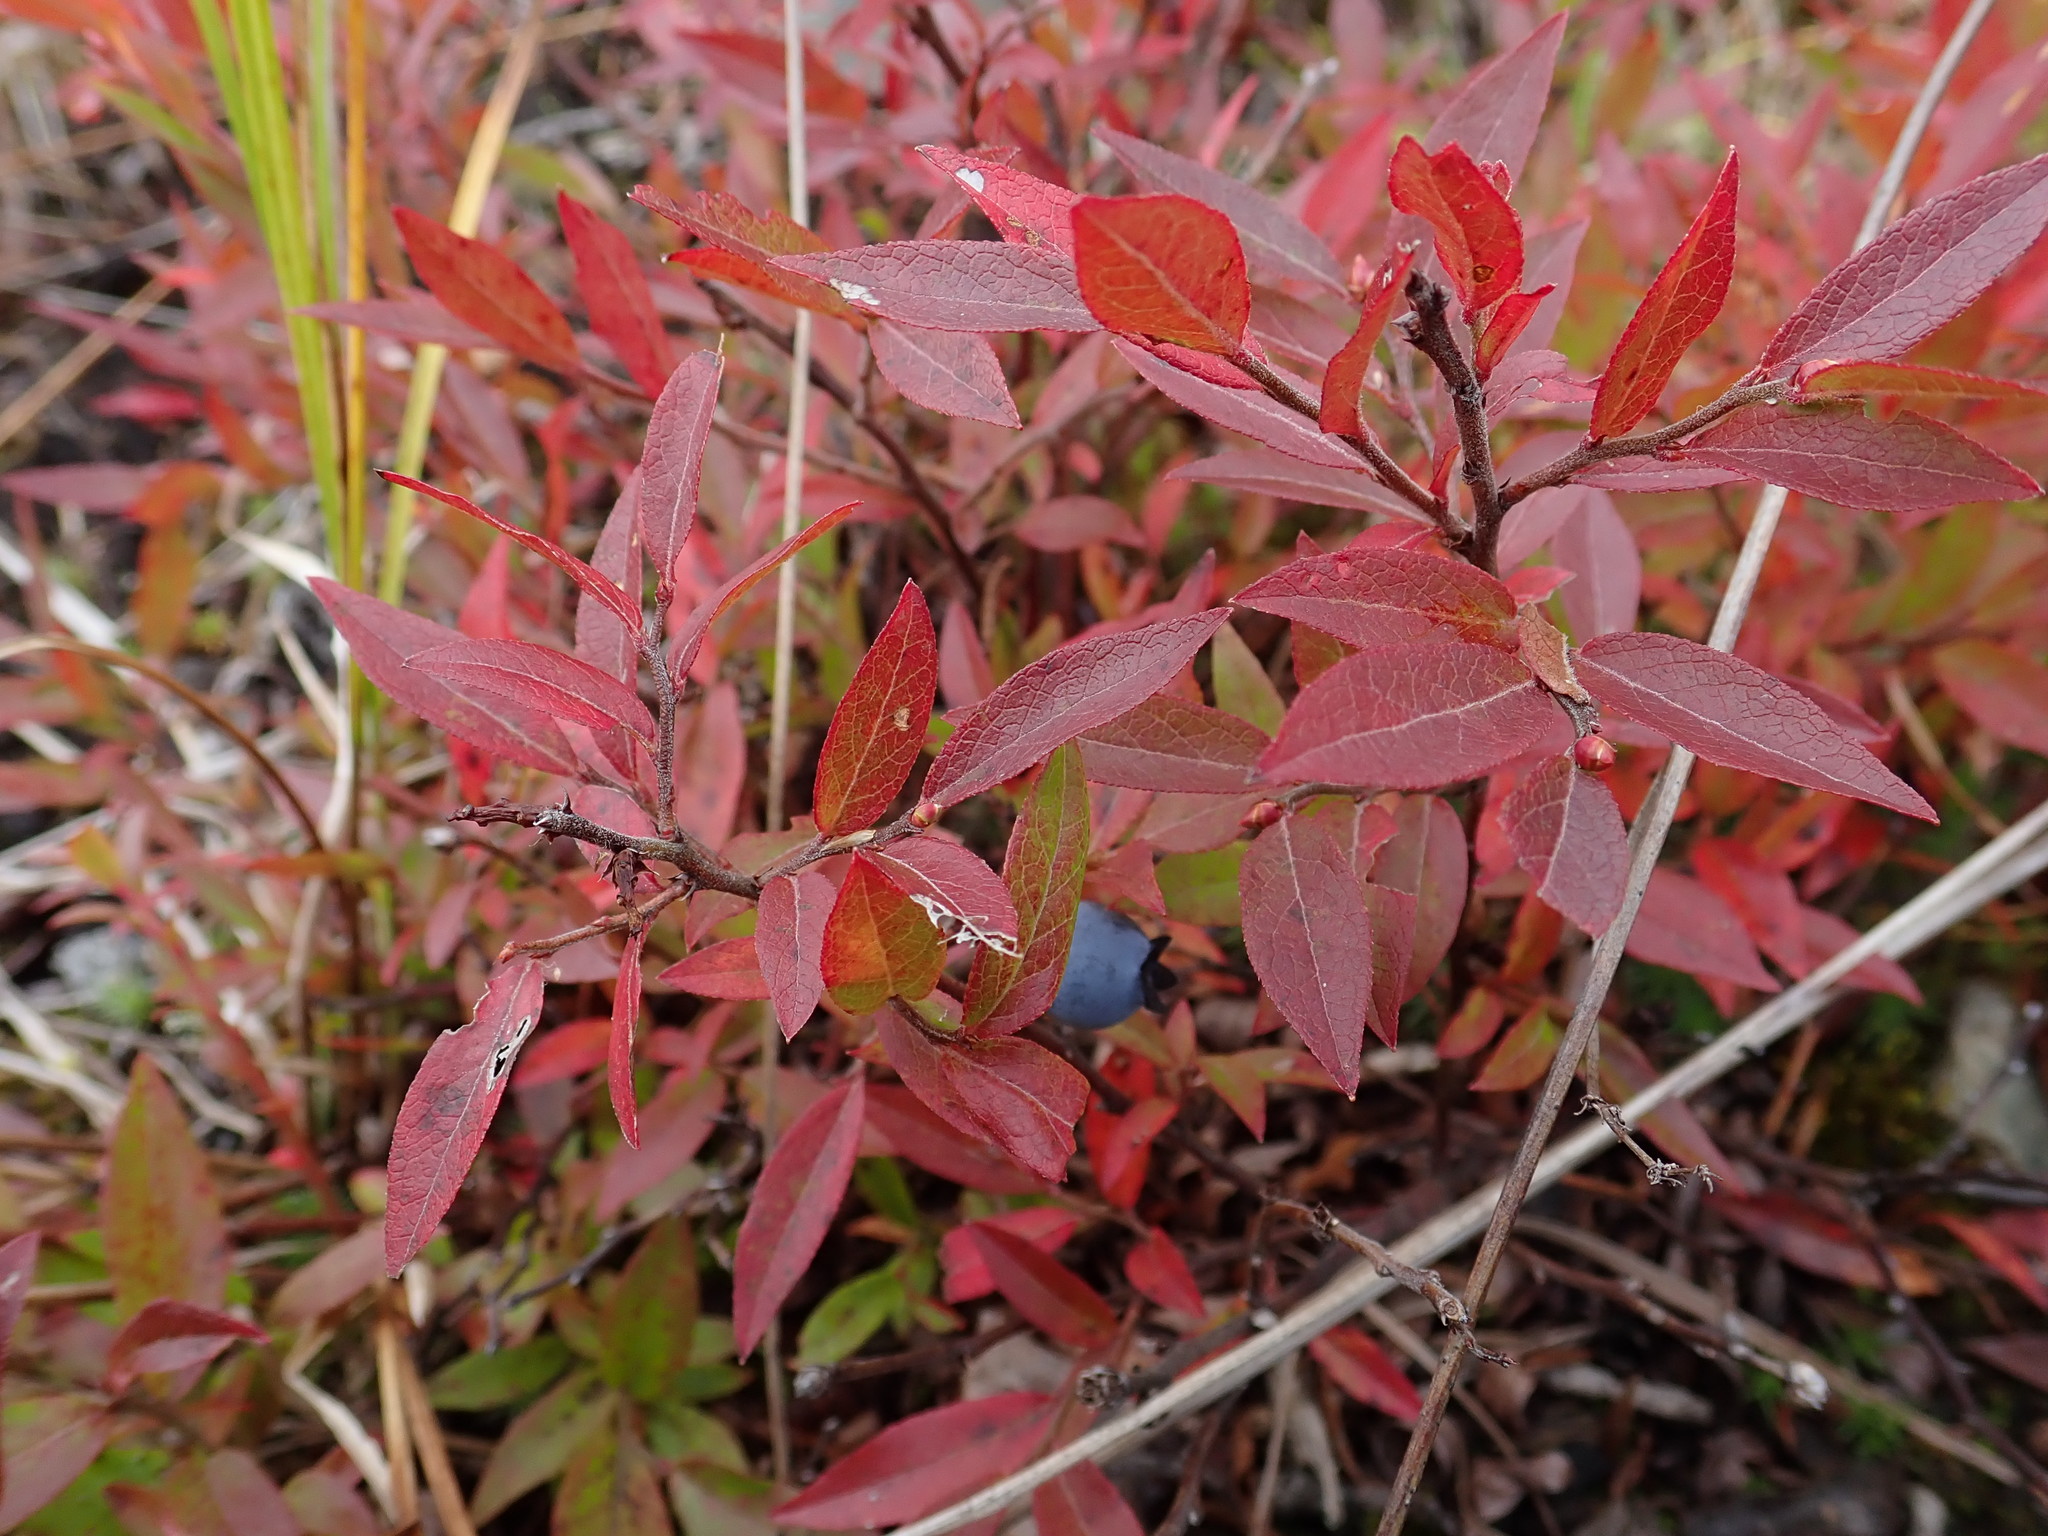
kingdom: Plantae
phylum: Tracheophyta
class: Magnoliopsida
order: Ericales
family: Ericaceae
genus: Vaccinium
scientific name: Vaccinium angustifolium
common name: Early lowbush blueberry
